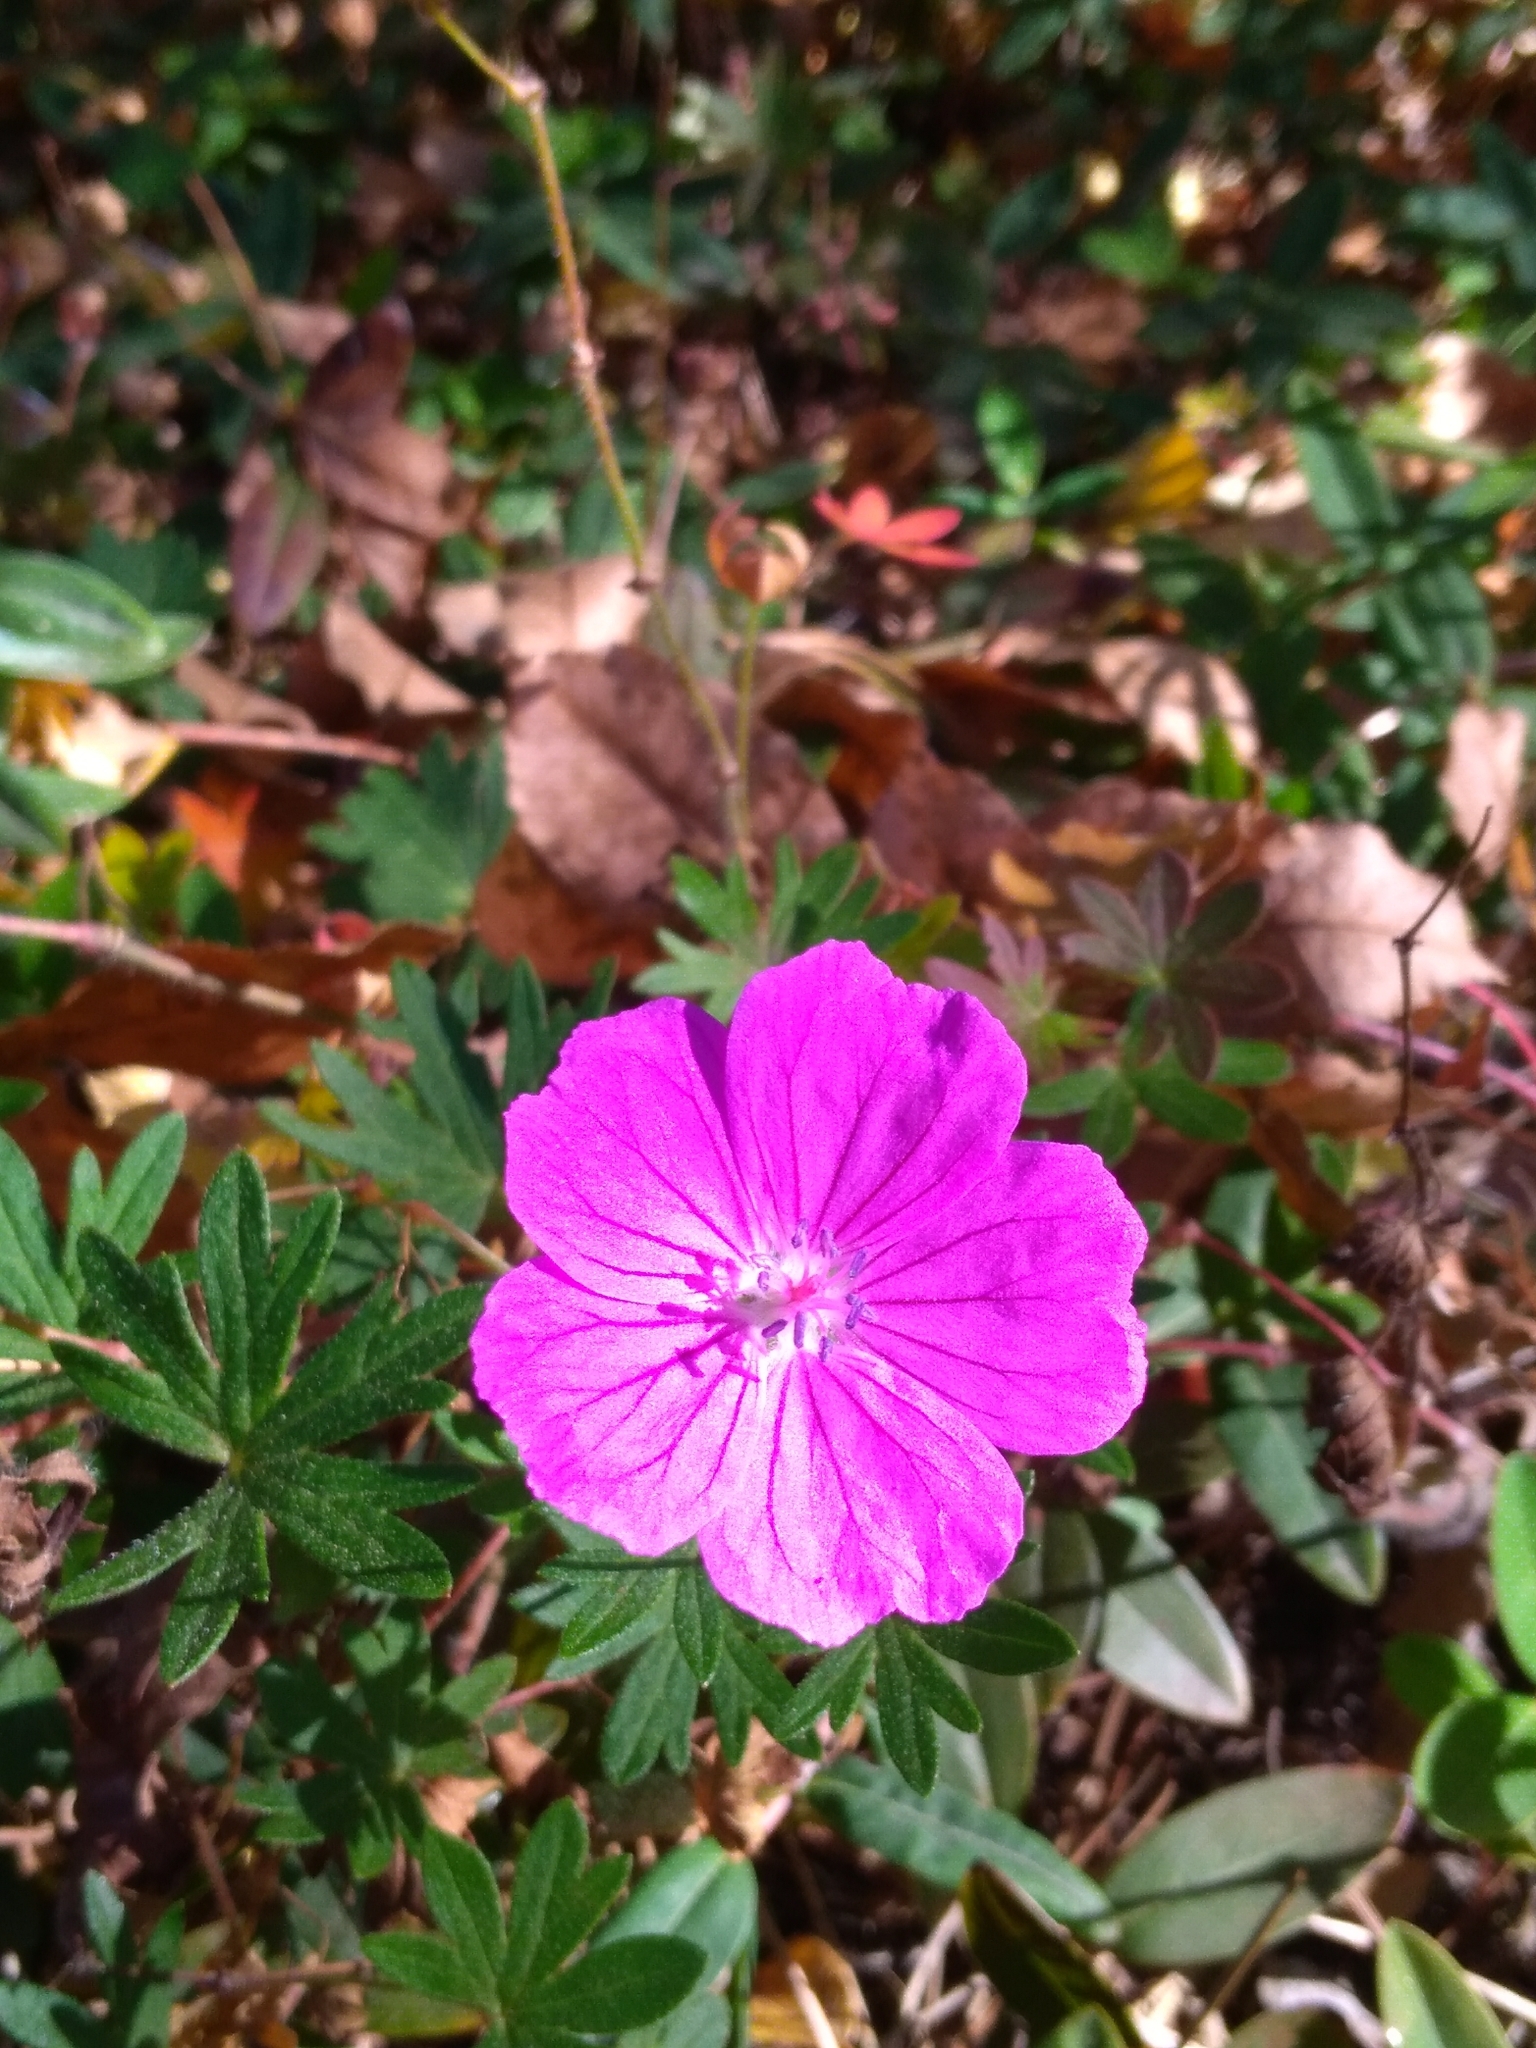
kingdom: Plantae
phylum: Tracheophyta
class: Magnoliopsida
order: Geraniales
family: Geraniaceae
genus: Geranium
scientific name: Geranium sanguineum
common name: Bloody crane's-bill
